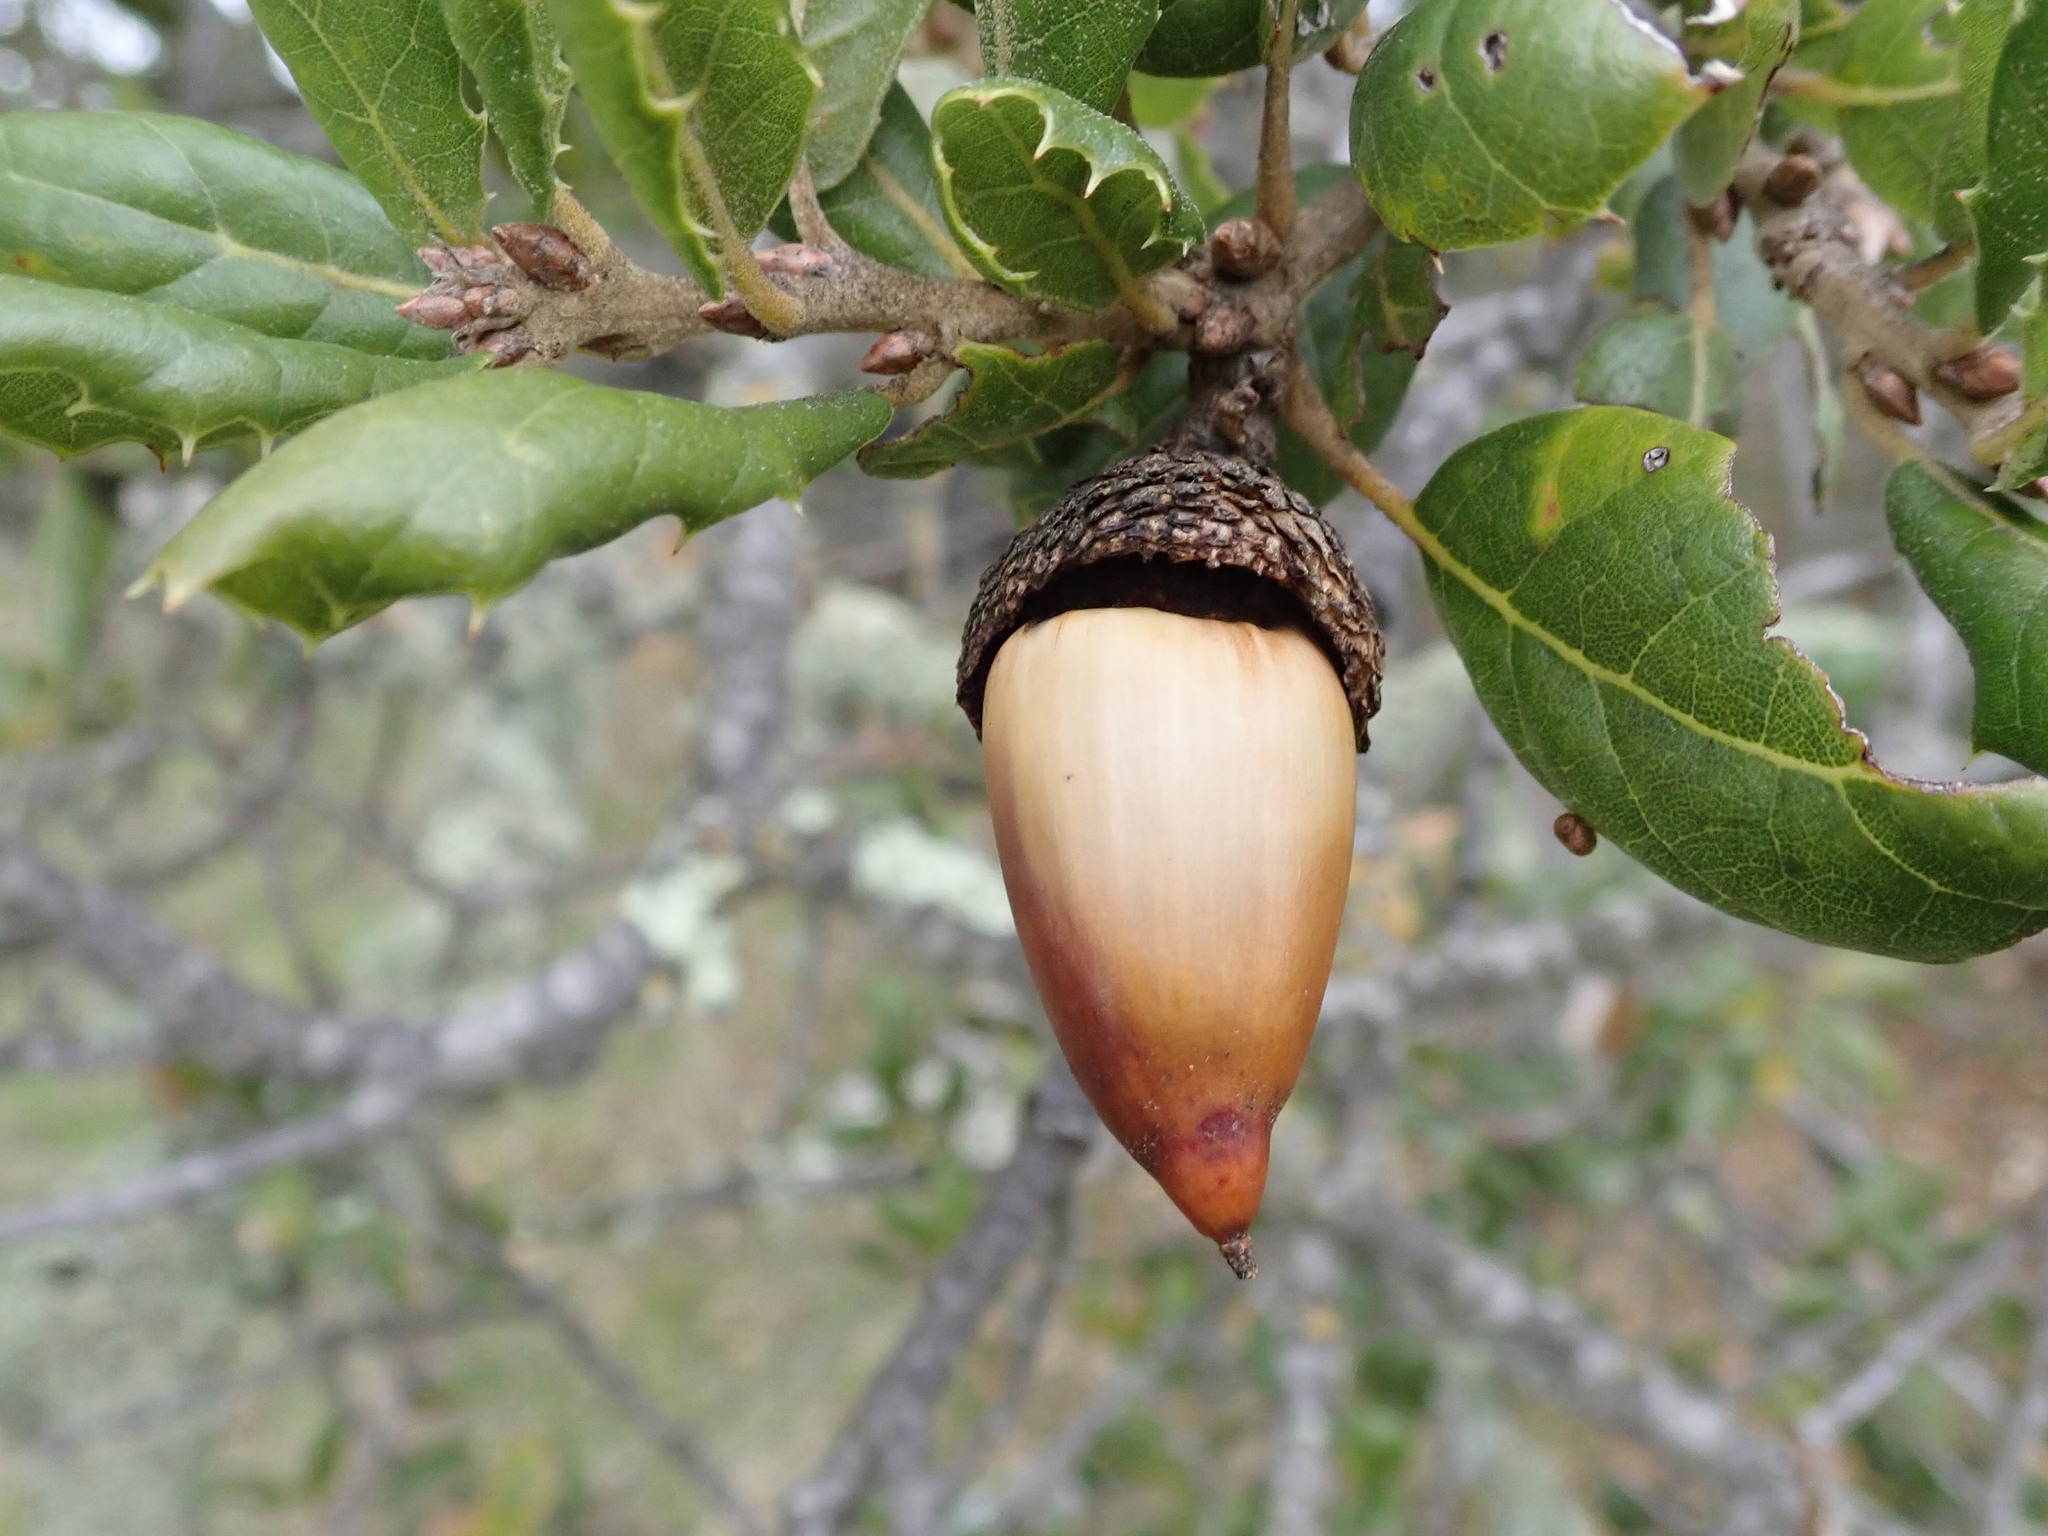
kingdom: Plantae
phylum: Tracheophyta
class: Magnoliopsida
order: Fagales
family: Fagaceae
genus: Quercus
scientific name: Quercus agrifolia
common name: California live oak
